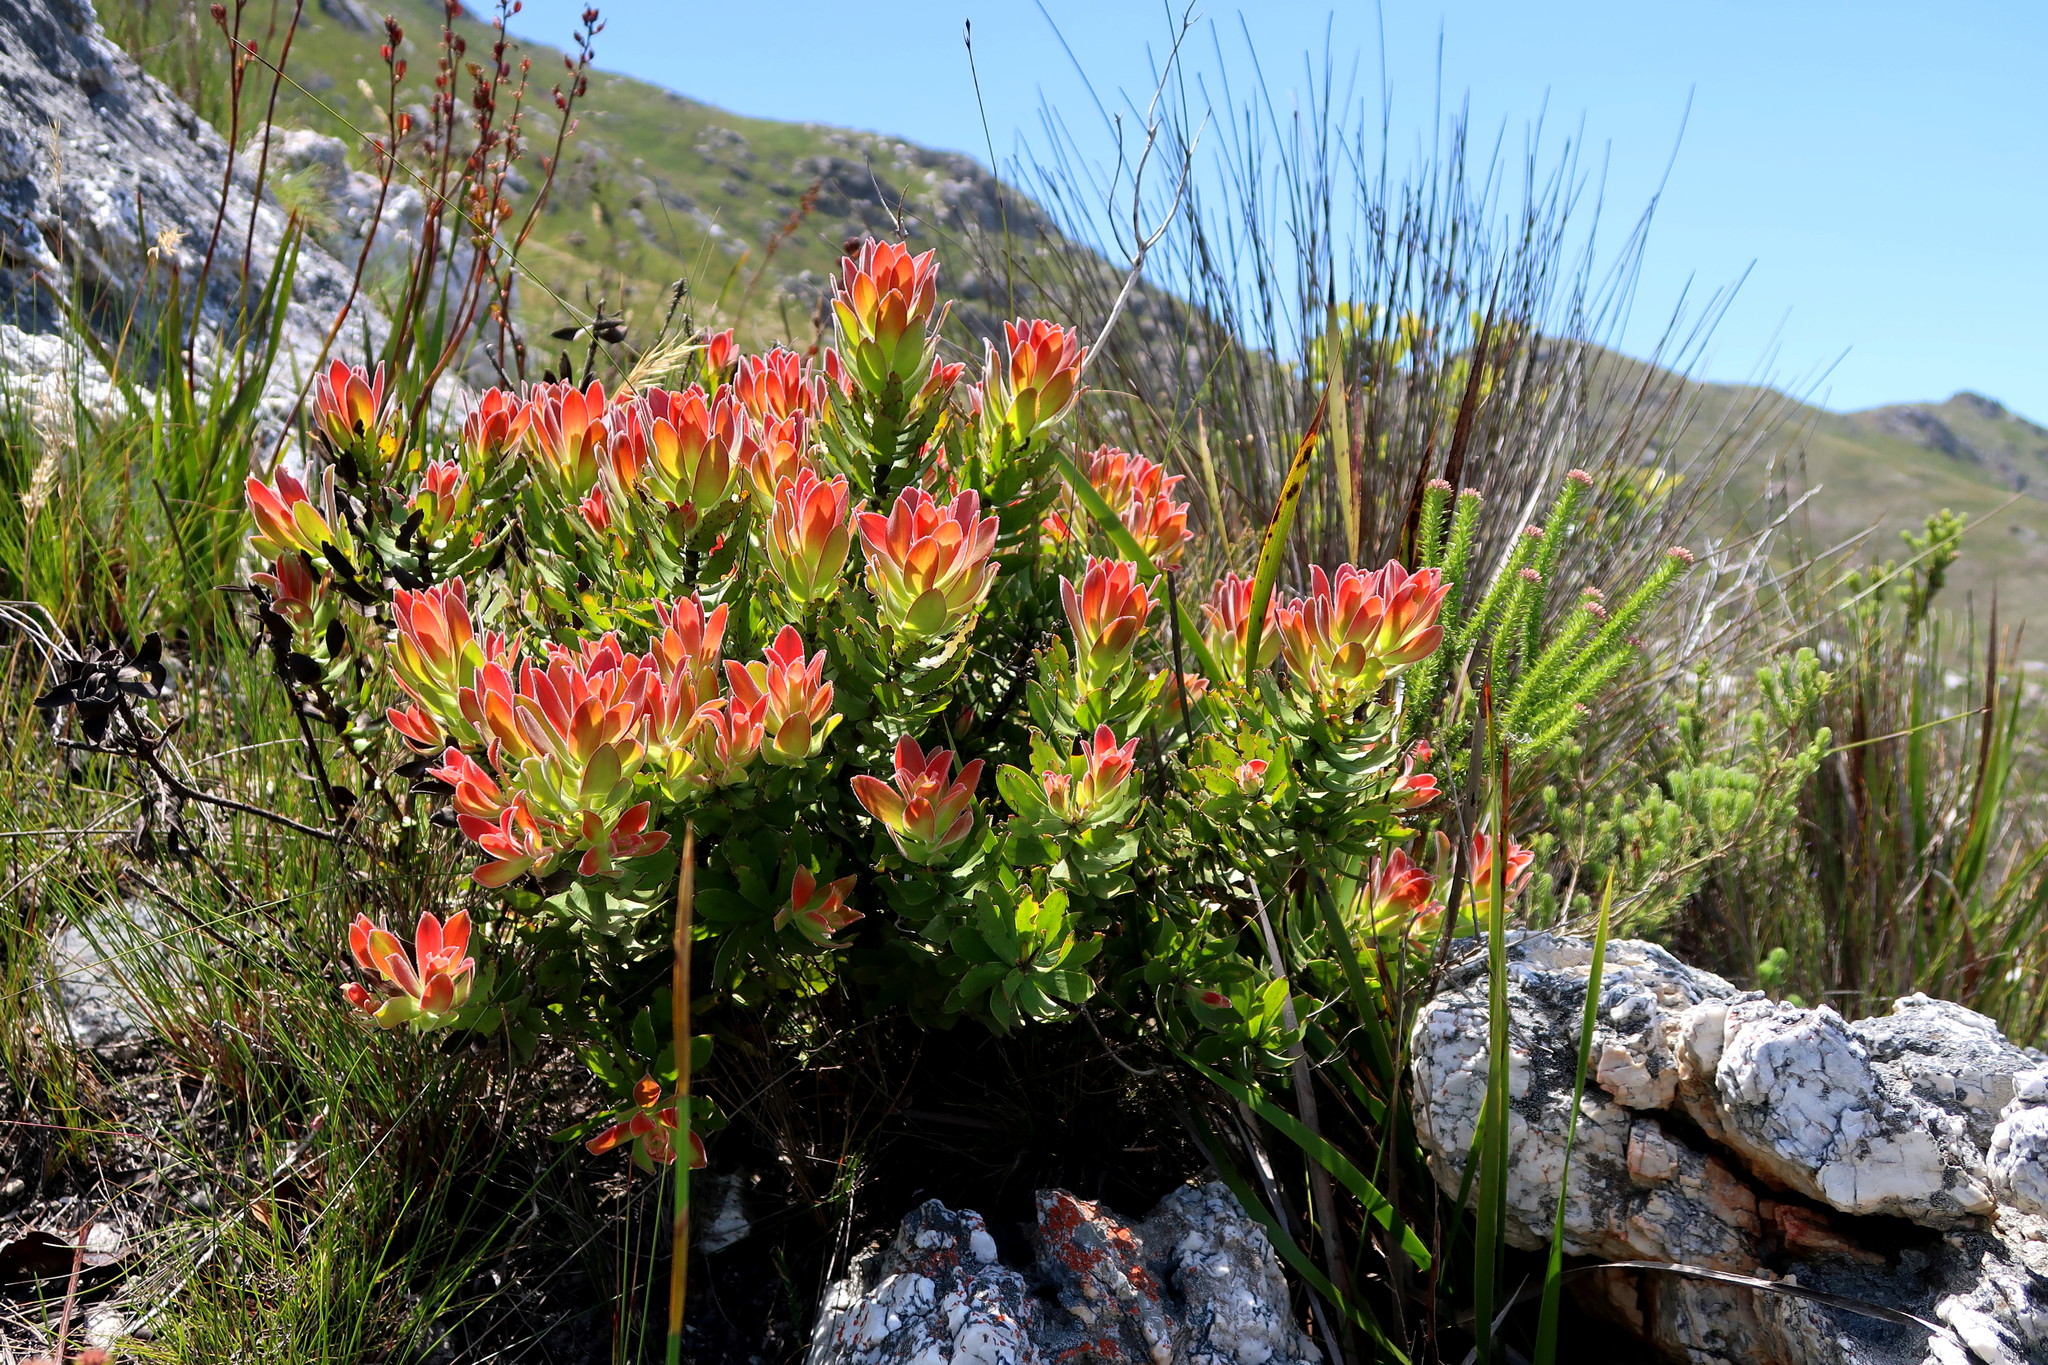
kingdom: Plantae
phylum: Tracheophyta
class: Magnoliopsida
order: Proteales
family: Proteaceae
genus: Mimetes
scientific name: Mimetes cucullatus
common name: Common pagoda
